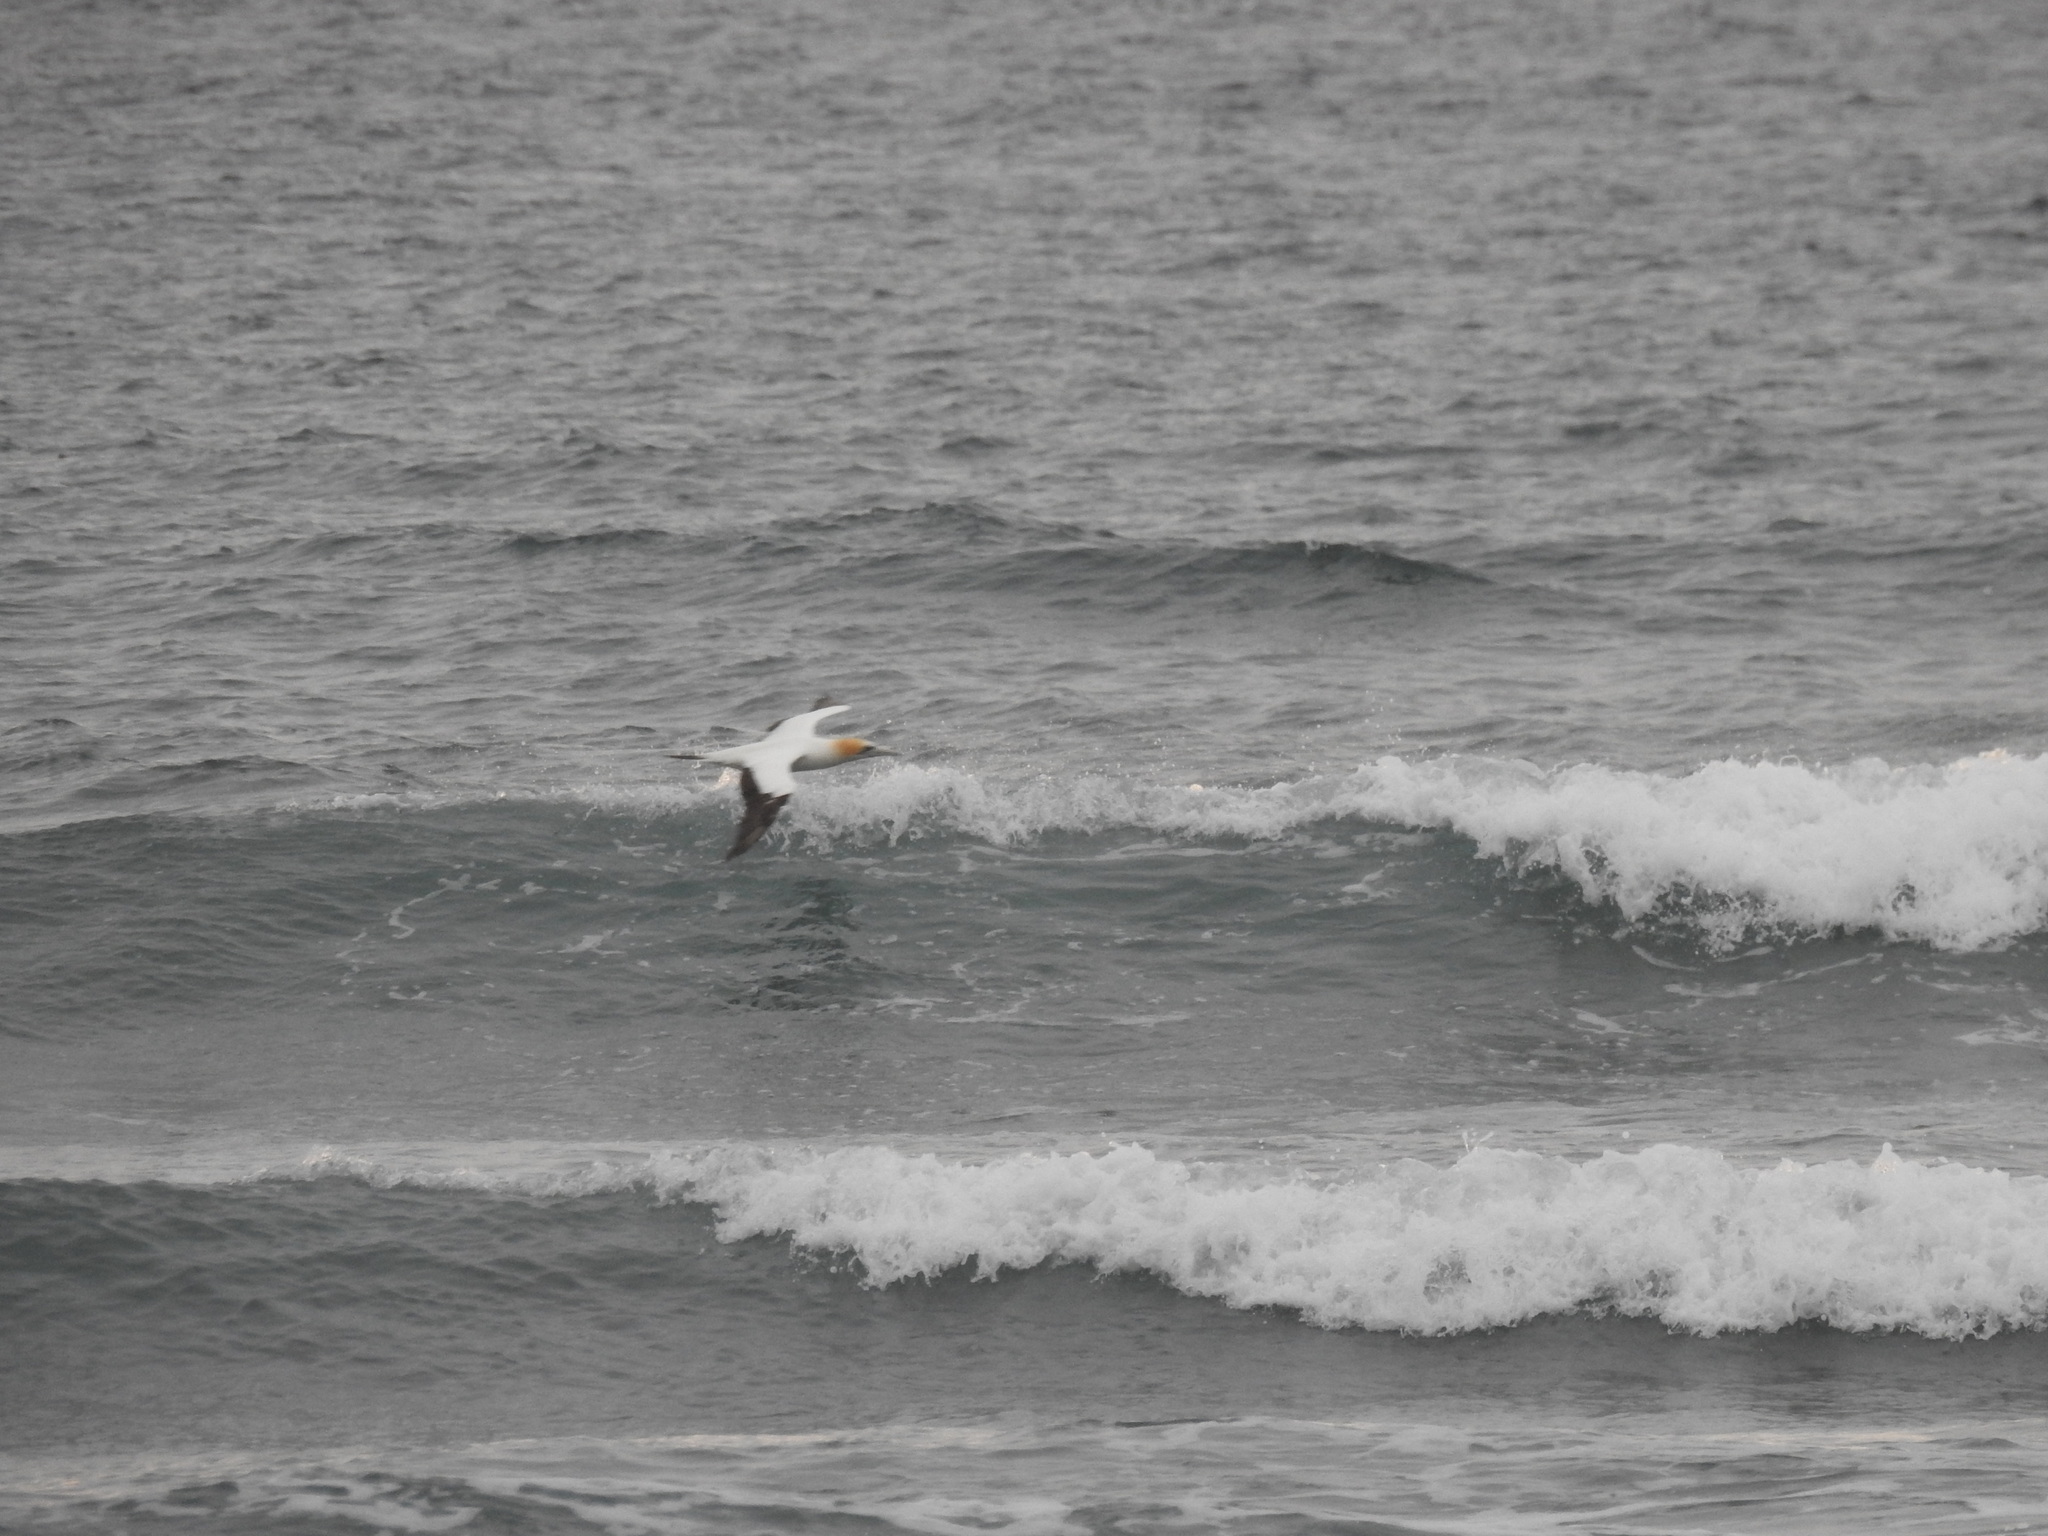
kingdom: Animalia
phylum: Chordata
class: Aves
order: Suliformes
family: Sulidae
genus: Morus
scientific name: Morus serrator
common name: Australasian gannet
